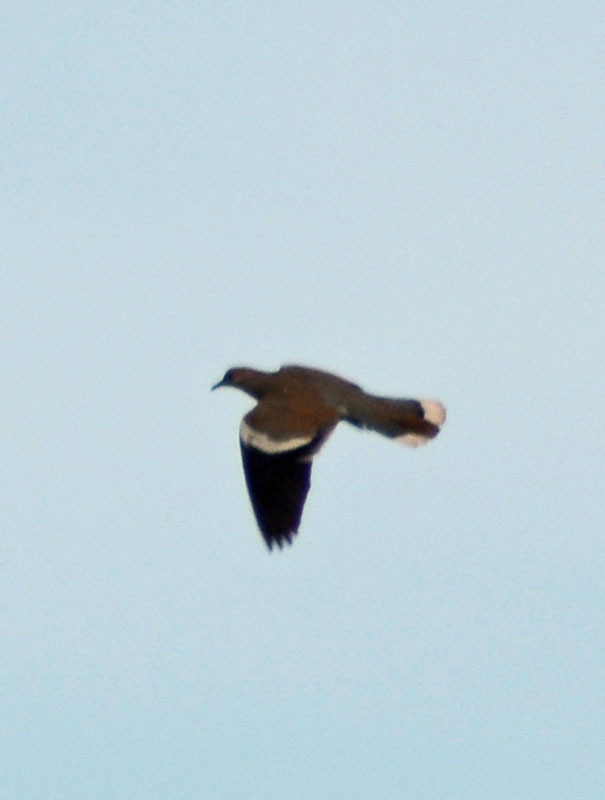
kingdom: Animalia
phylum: Chordata
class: Aves
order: Columbiformes
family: Columbidae
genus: Zenaida
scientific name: Zenaida asiatica
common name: White-winged dove
